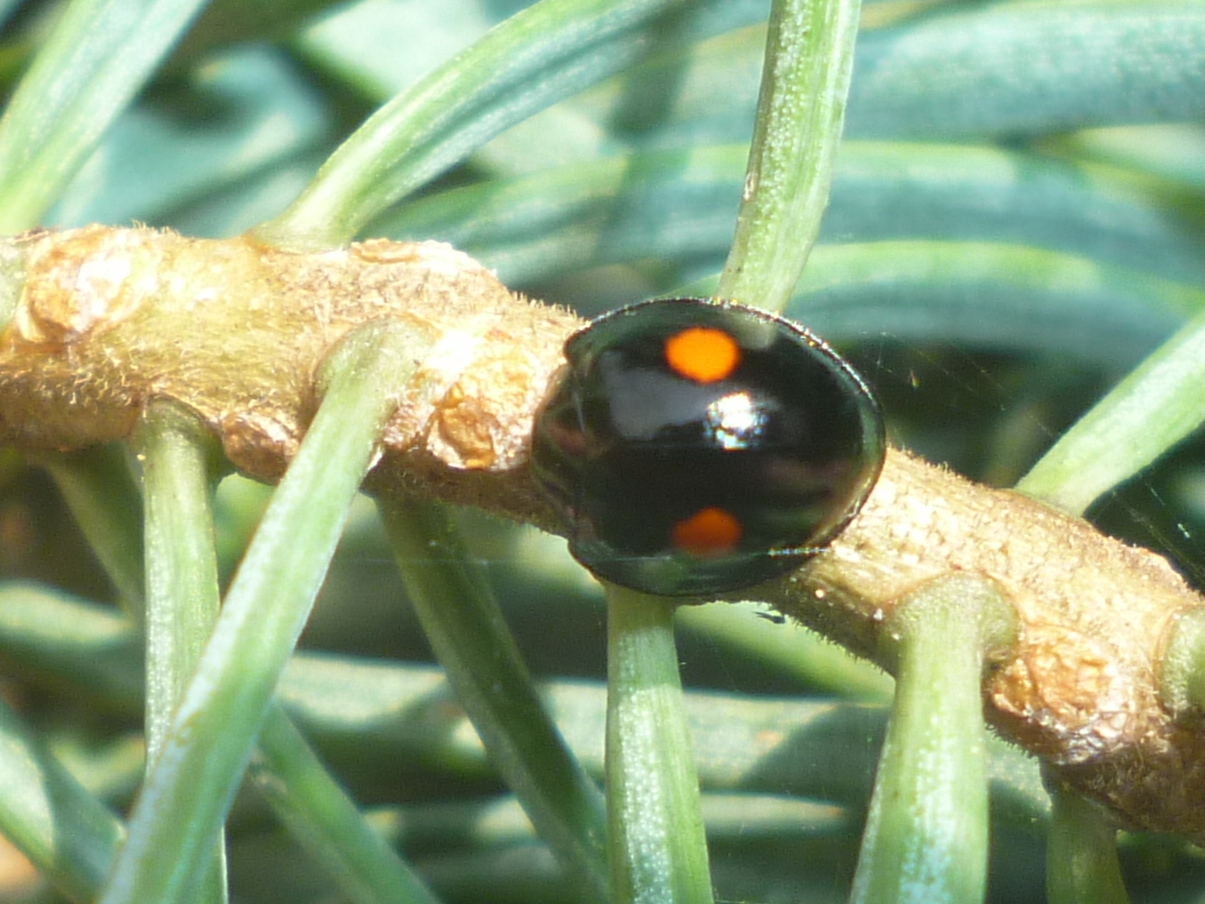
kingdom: Animalia
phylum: Arthropoda
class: Insecta
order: Coleoptera
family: Coccinellidae
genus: Chilocorus
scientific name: Chilocorus stigma
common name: Twicestabbed lady beetle
